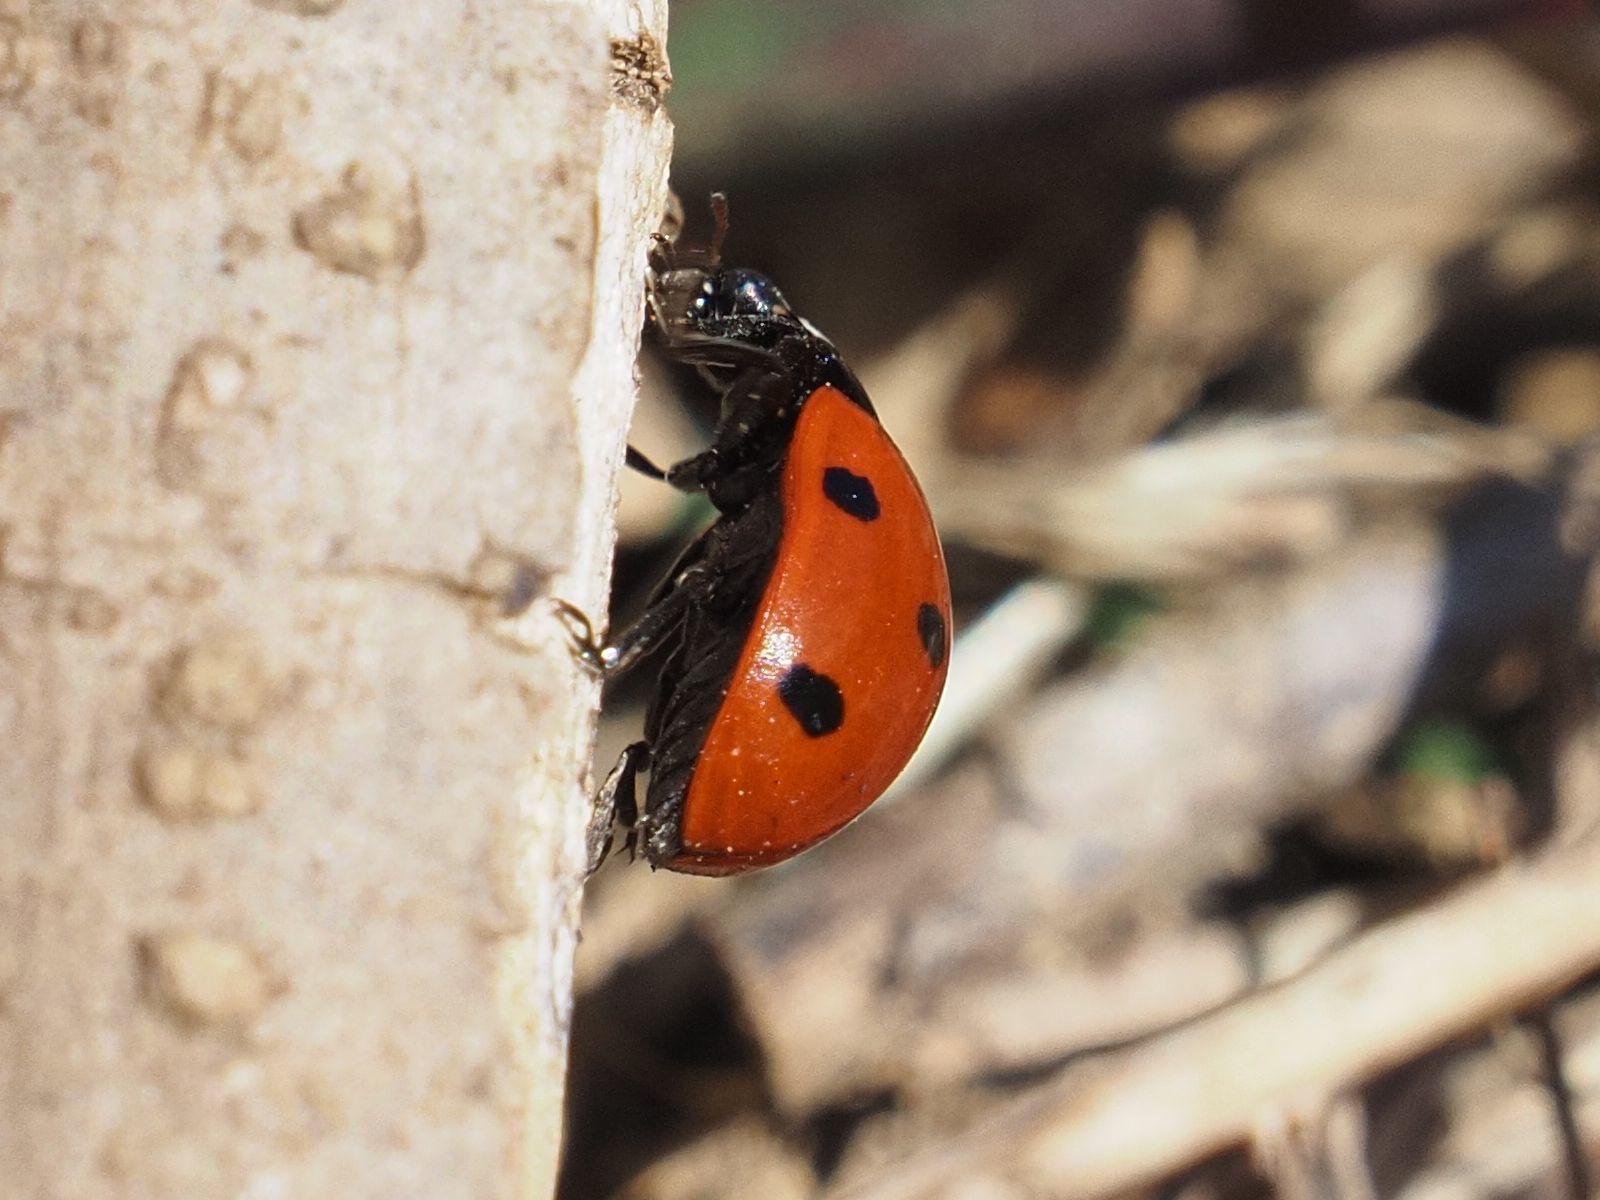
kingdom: Animalia
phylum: Arthropoda
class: Insecta
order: Coleoptera
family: Coccinellidae
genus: Coccinella
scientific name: Coccinella septempunctata
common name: Sevenspotted lady beetle
